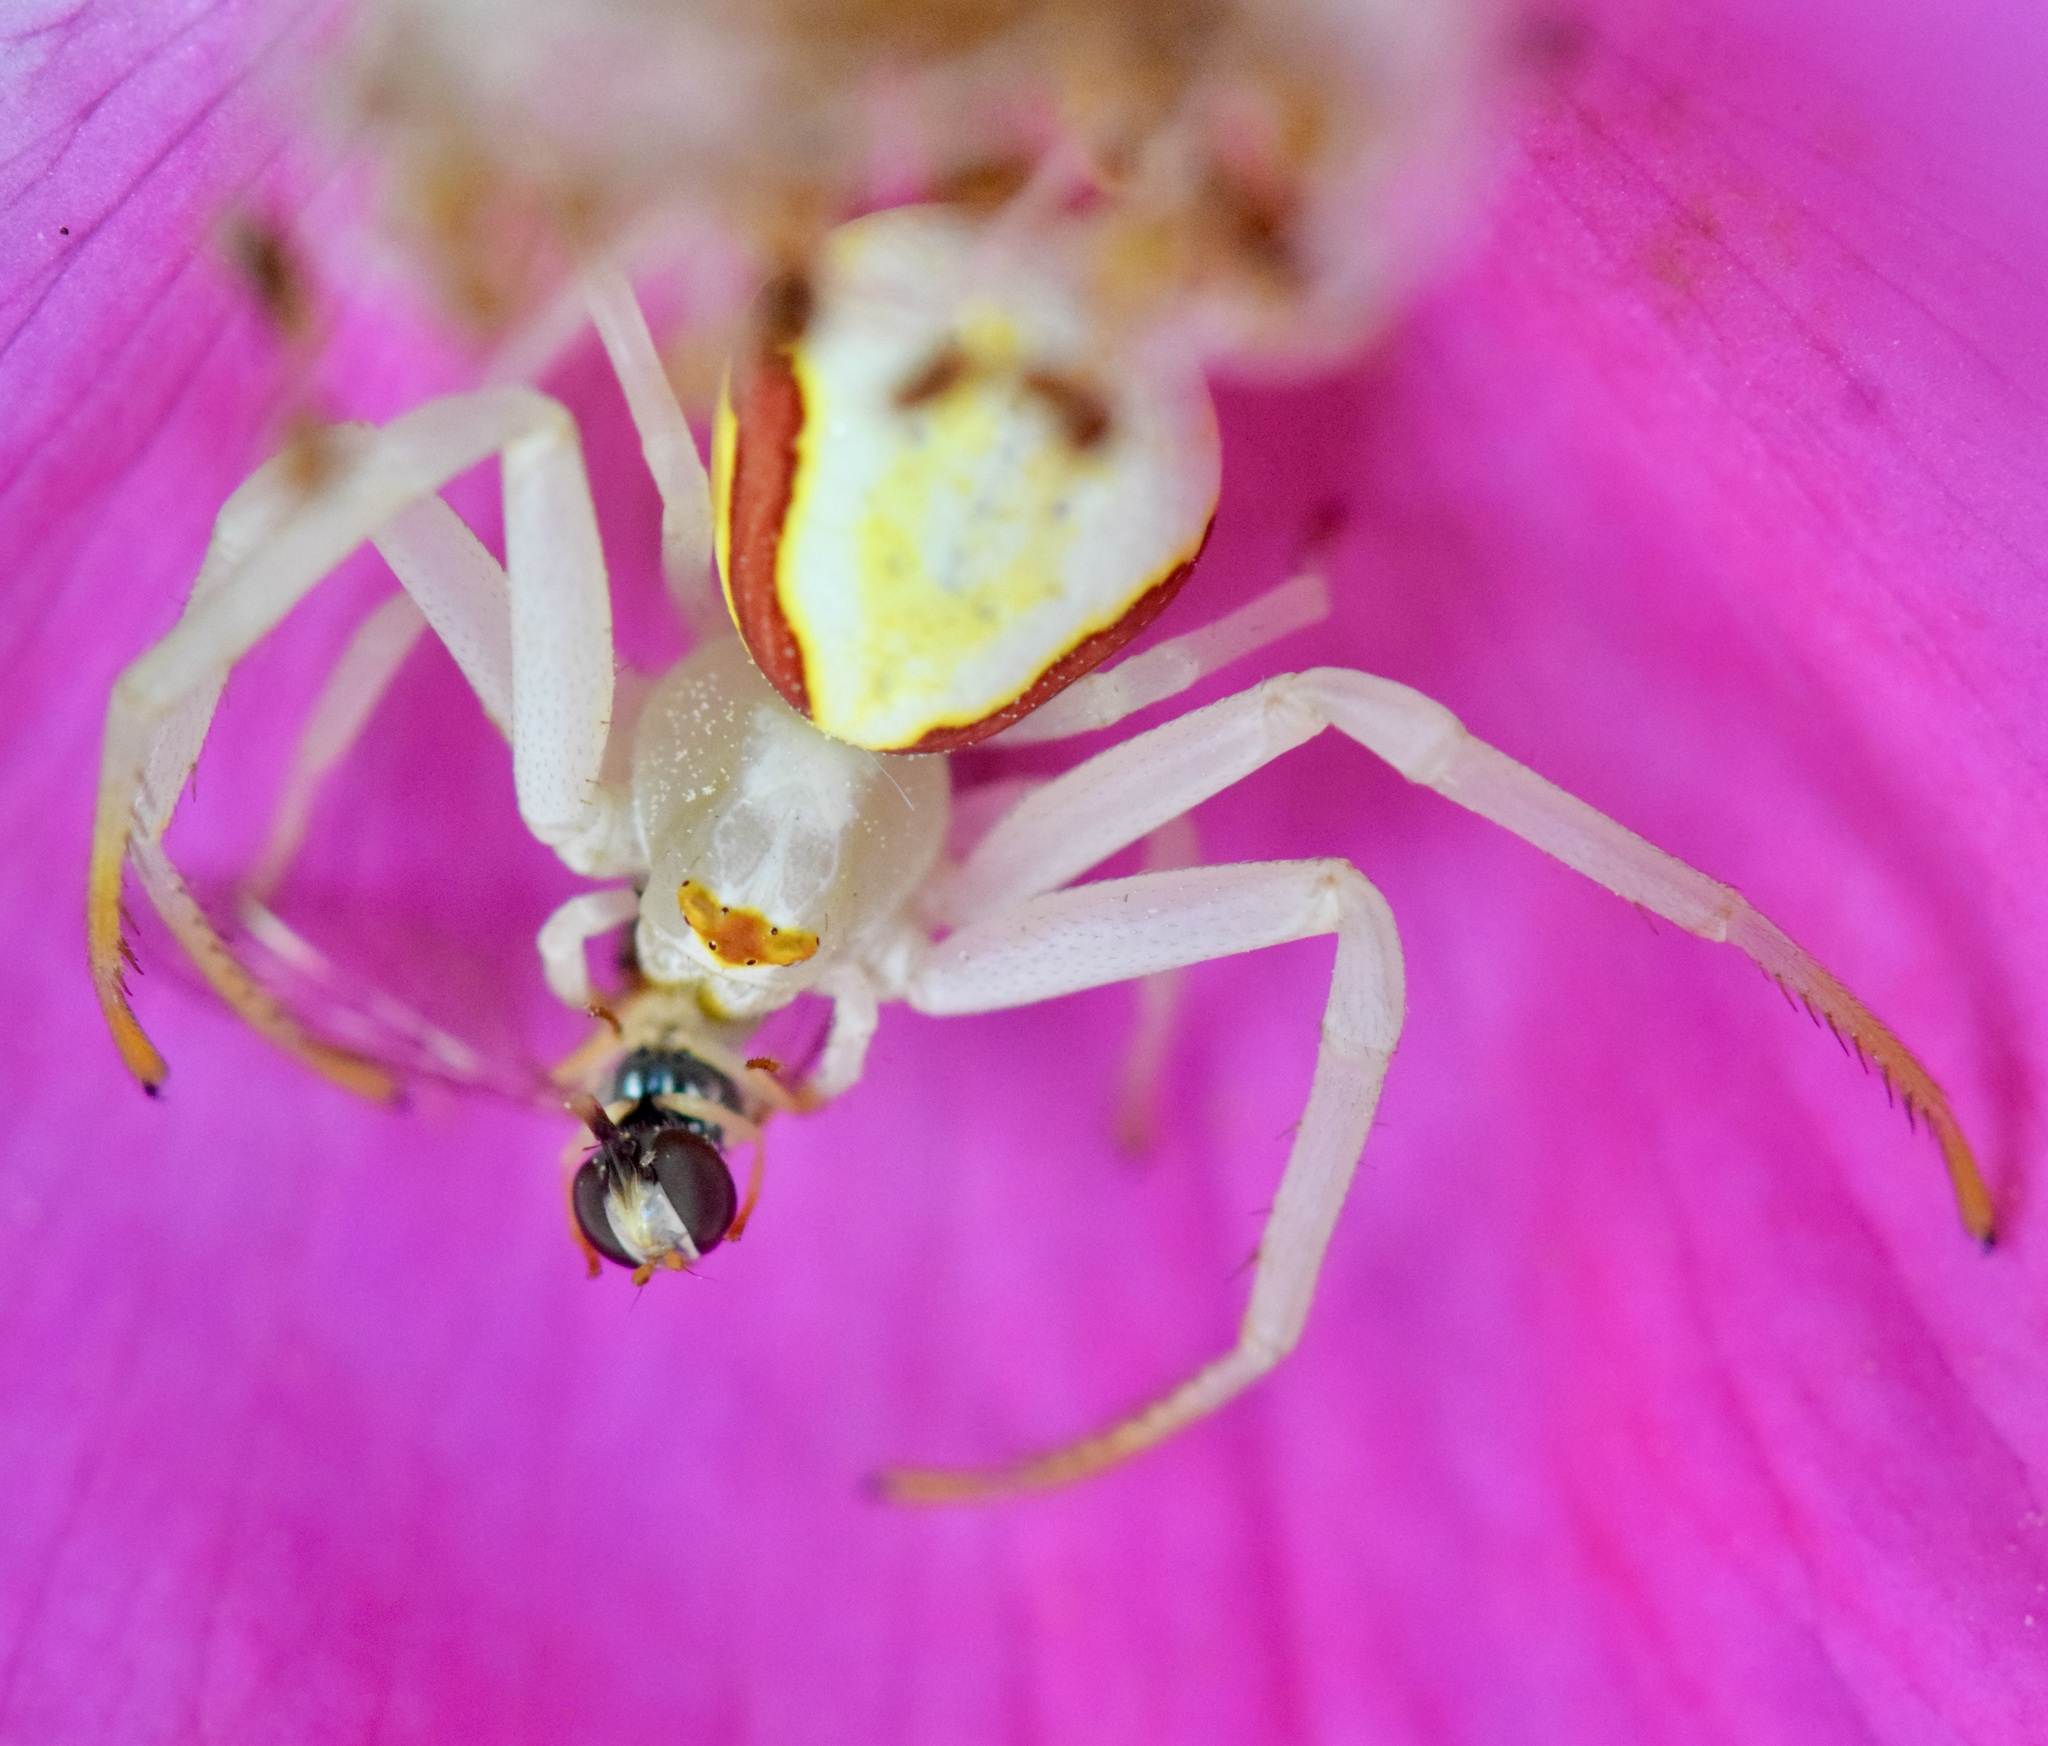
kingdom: Animalia
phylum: Arthropoda
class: Arachnida
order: Araneae
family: Thomisidae
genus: Misumena
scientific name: Misumena vatia
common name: Goldenrod crab spider
